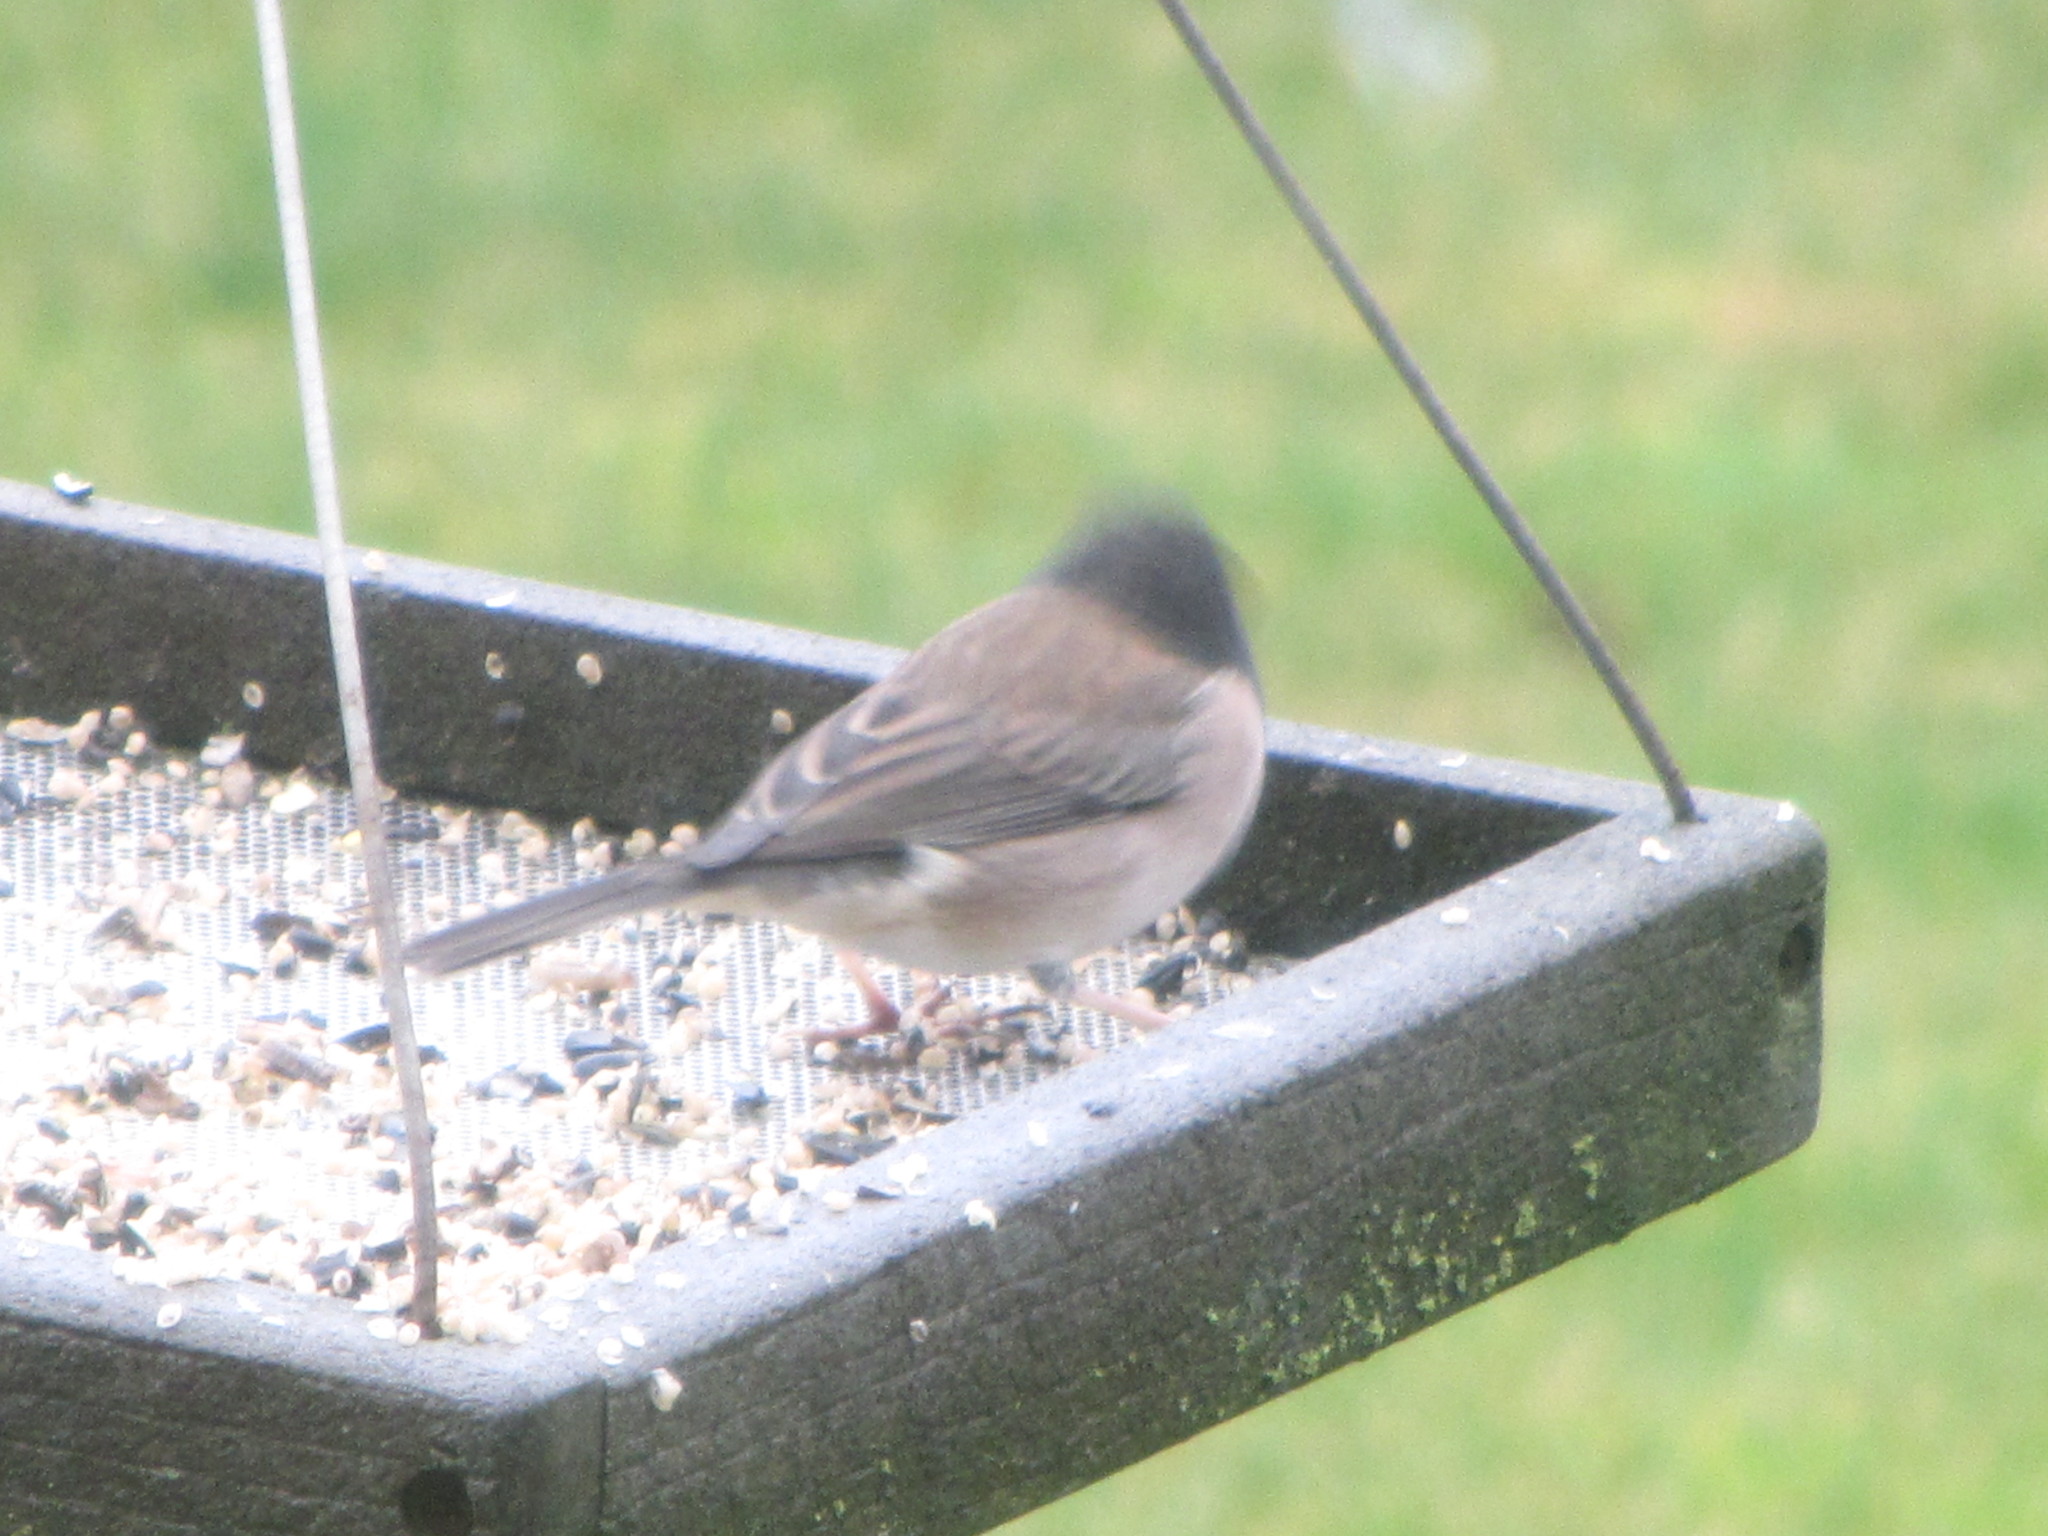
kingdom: Animalia
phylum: Chordata
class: Aves
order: Passeriformes
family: Passerellidae
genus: Junco
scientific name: Junco hyemalis
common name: Dark-eyed junco
